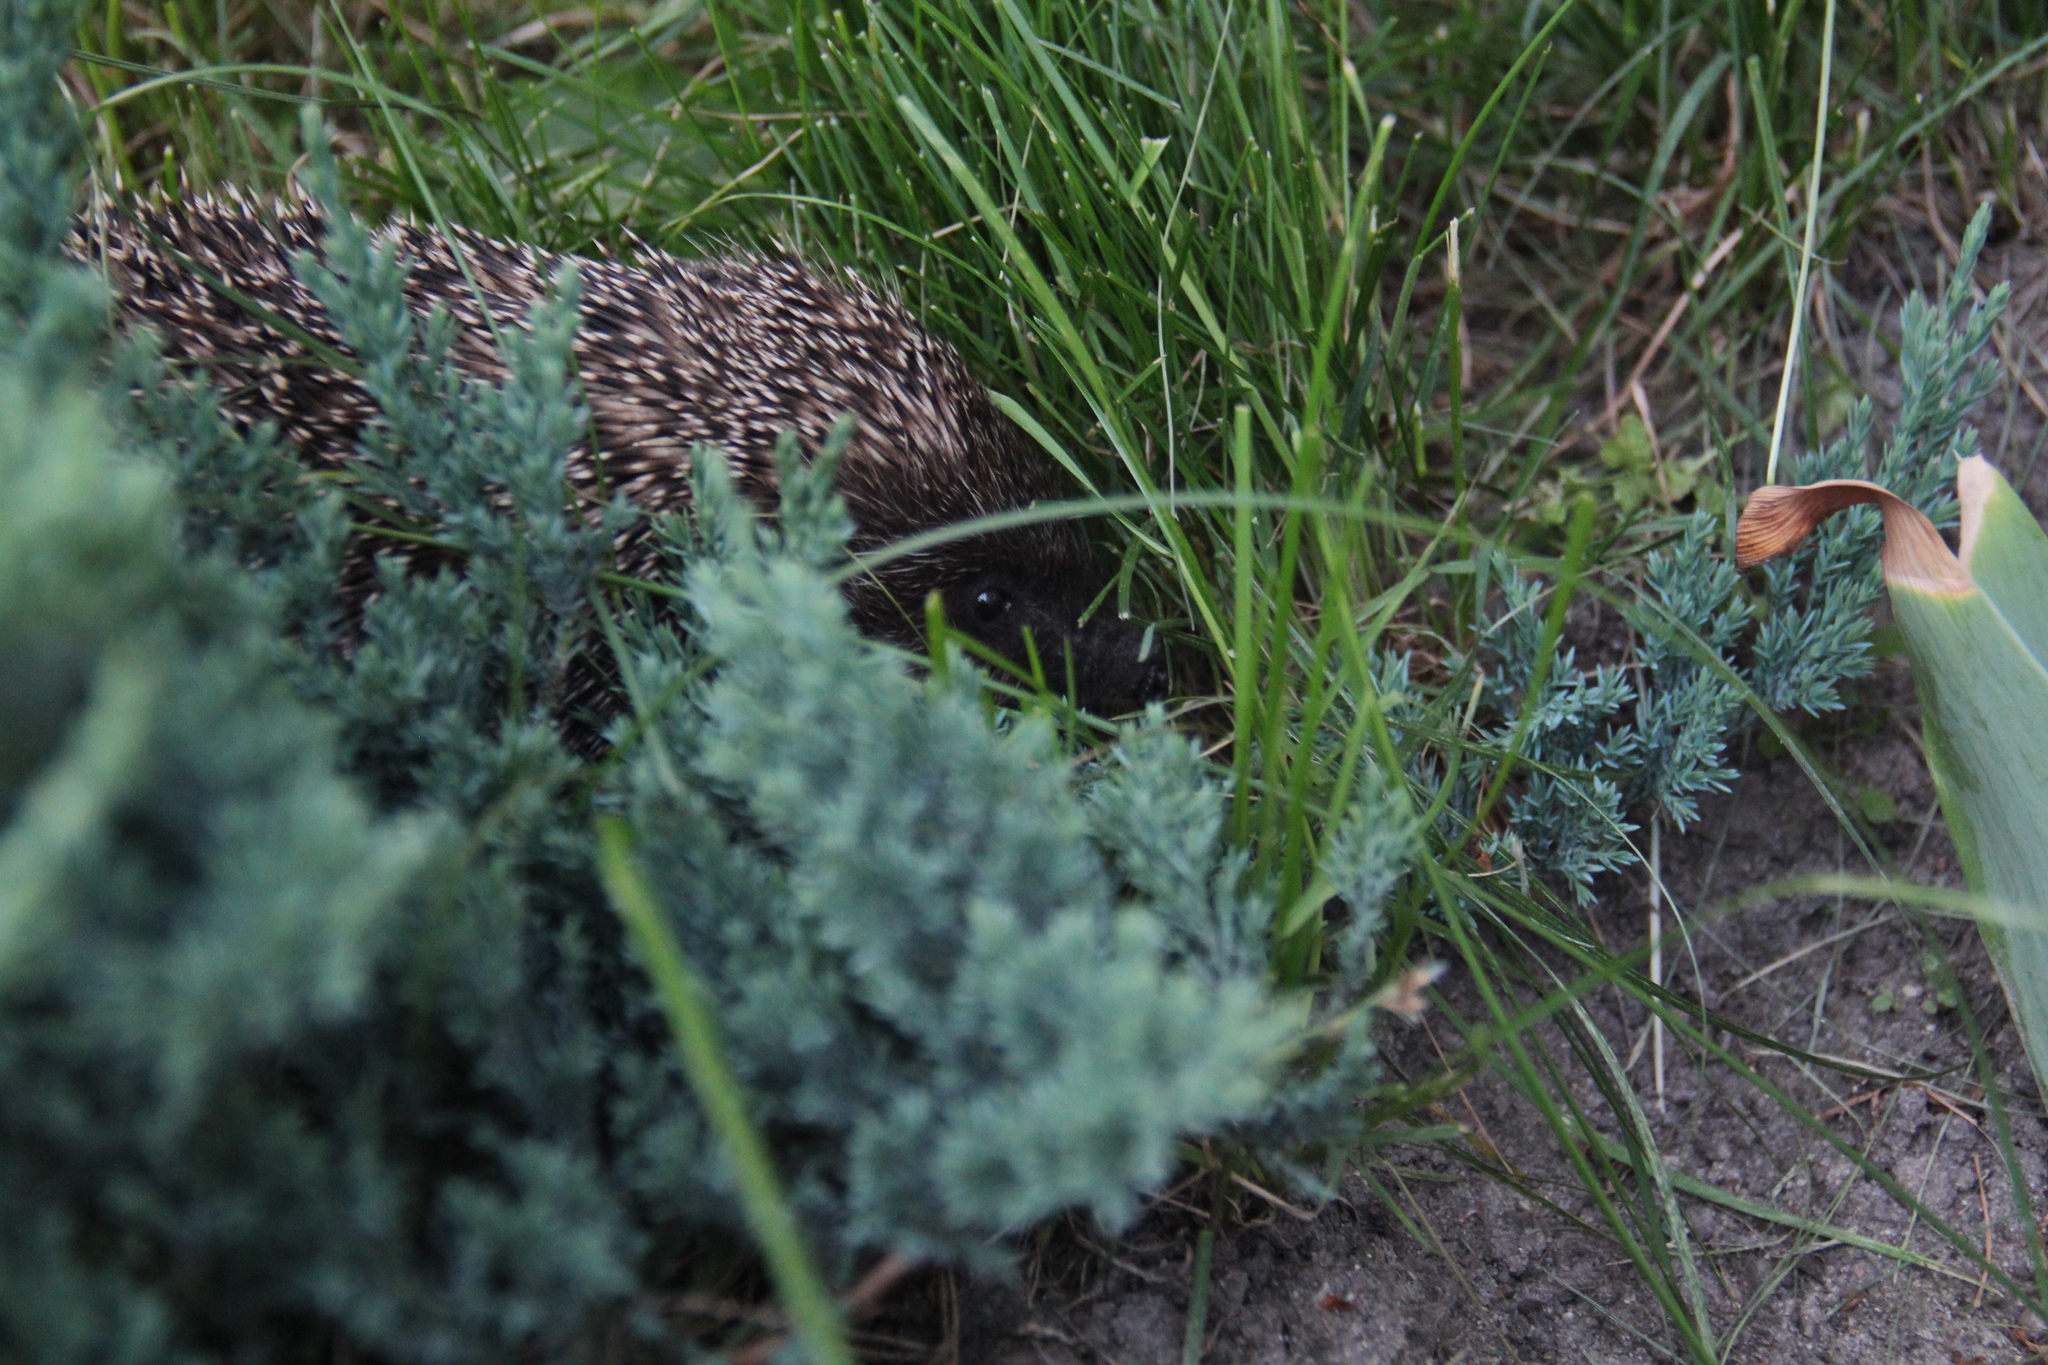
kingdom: Animalia
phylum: Chordata
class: Mammalia
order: Erinaceomorpha
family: Erinaceidae
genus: Erinaceus
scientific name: Erinaceus roumanicus
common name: Northern white-breasted hedgehog
